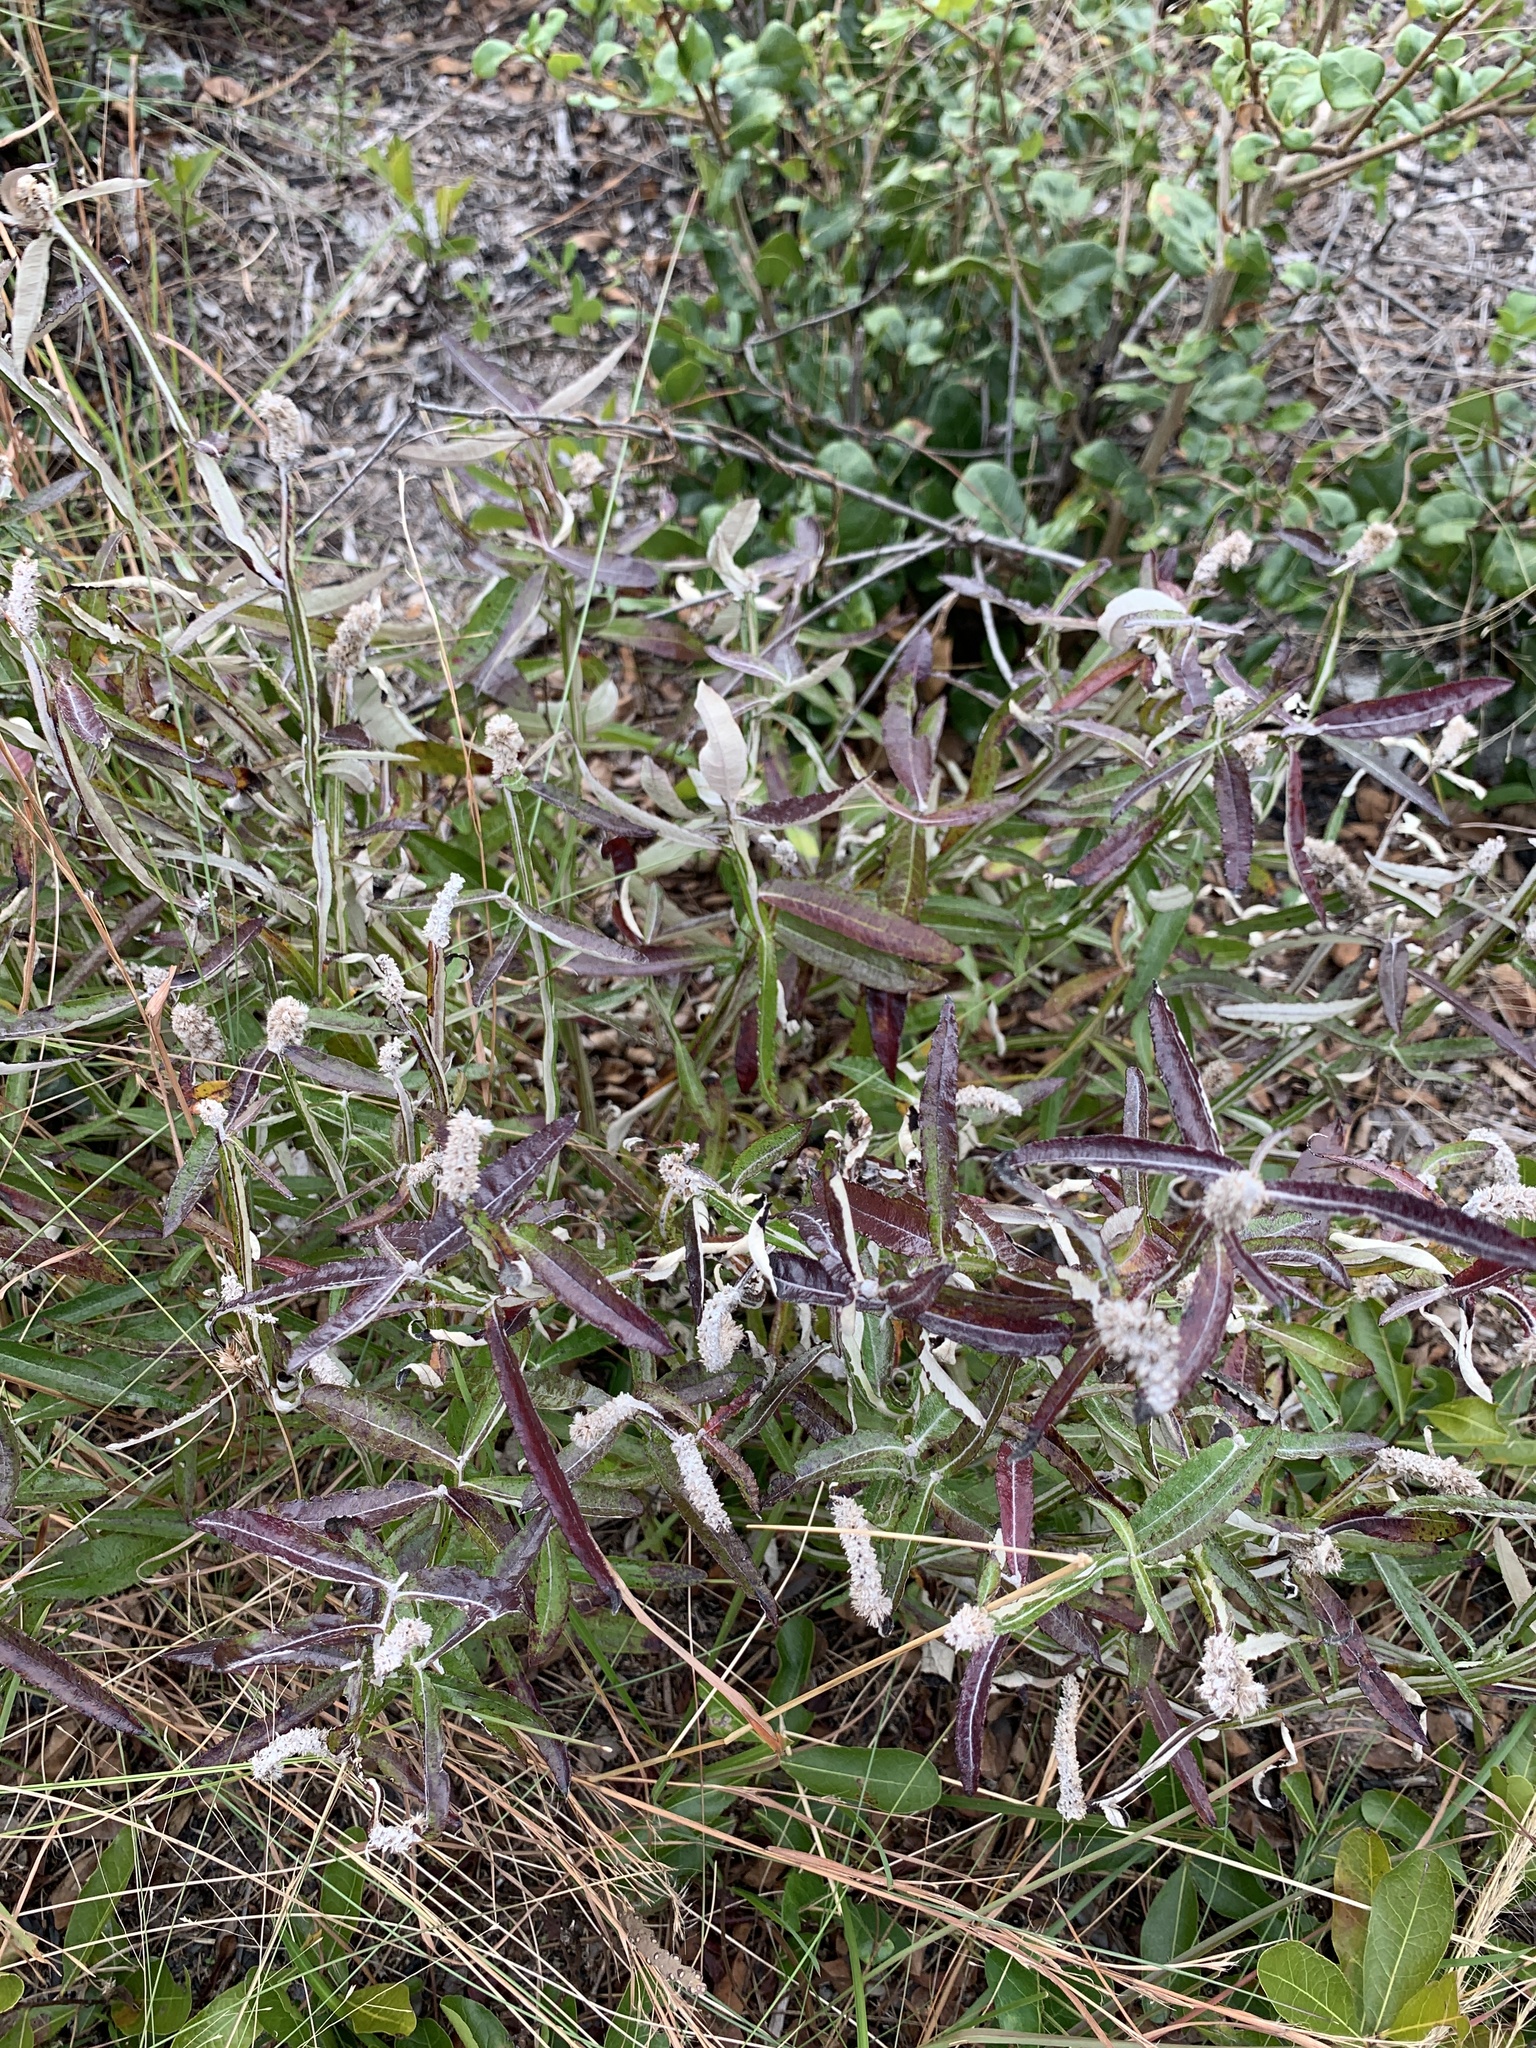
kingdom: Plantae
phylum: Tracheophyta
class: Magnoliopsida
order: Asterales
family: Asteraceae
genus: Pterocaulon
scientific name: Pterocaulon pycnostachyum
